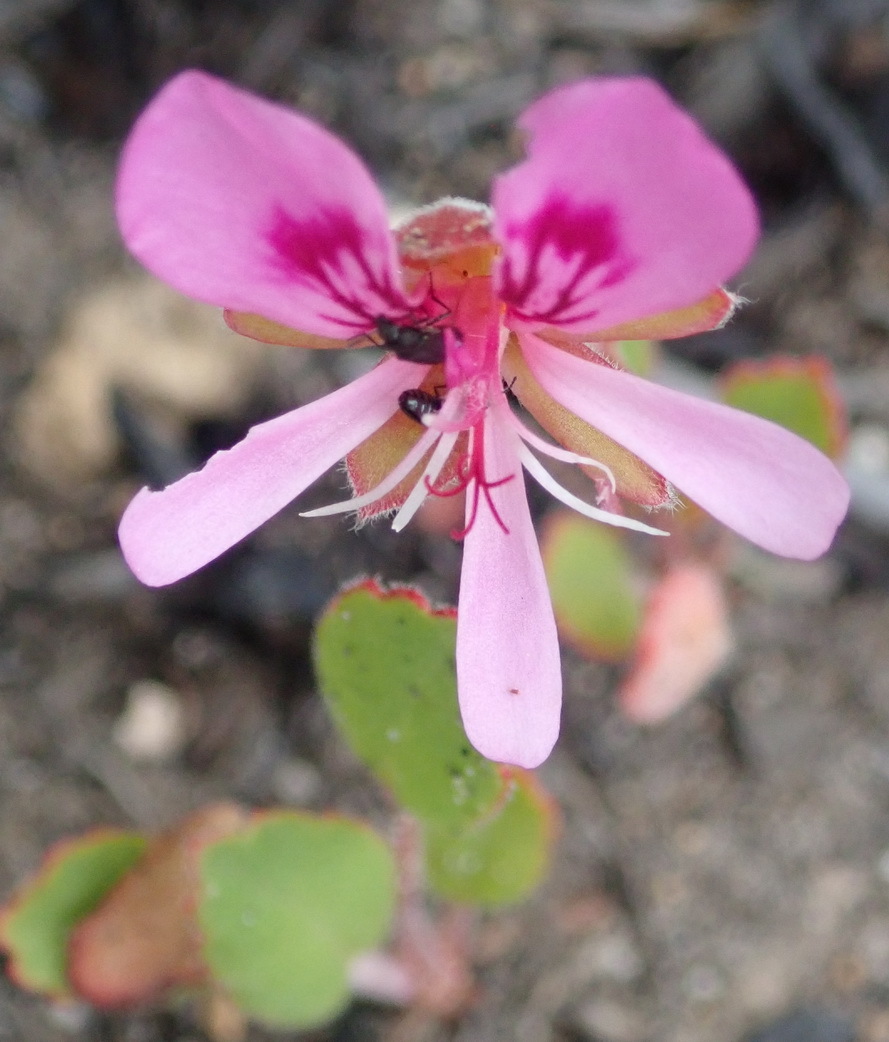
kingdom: Plantae
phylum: Tracheophyta
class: Magnoliopsida
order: Geraniales
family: Geraniaceae
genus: Pelargonium
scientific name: Pelargonium ovale
